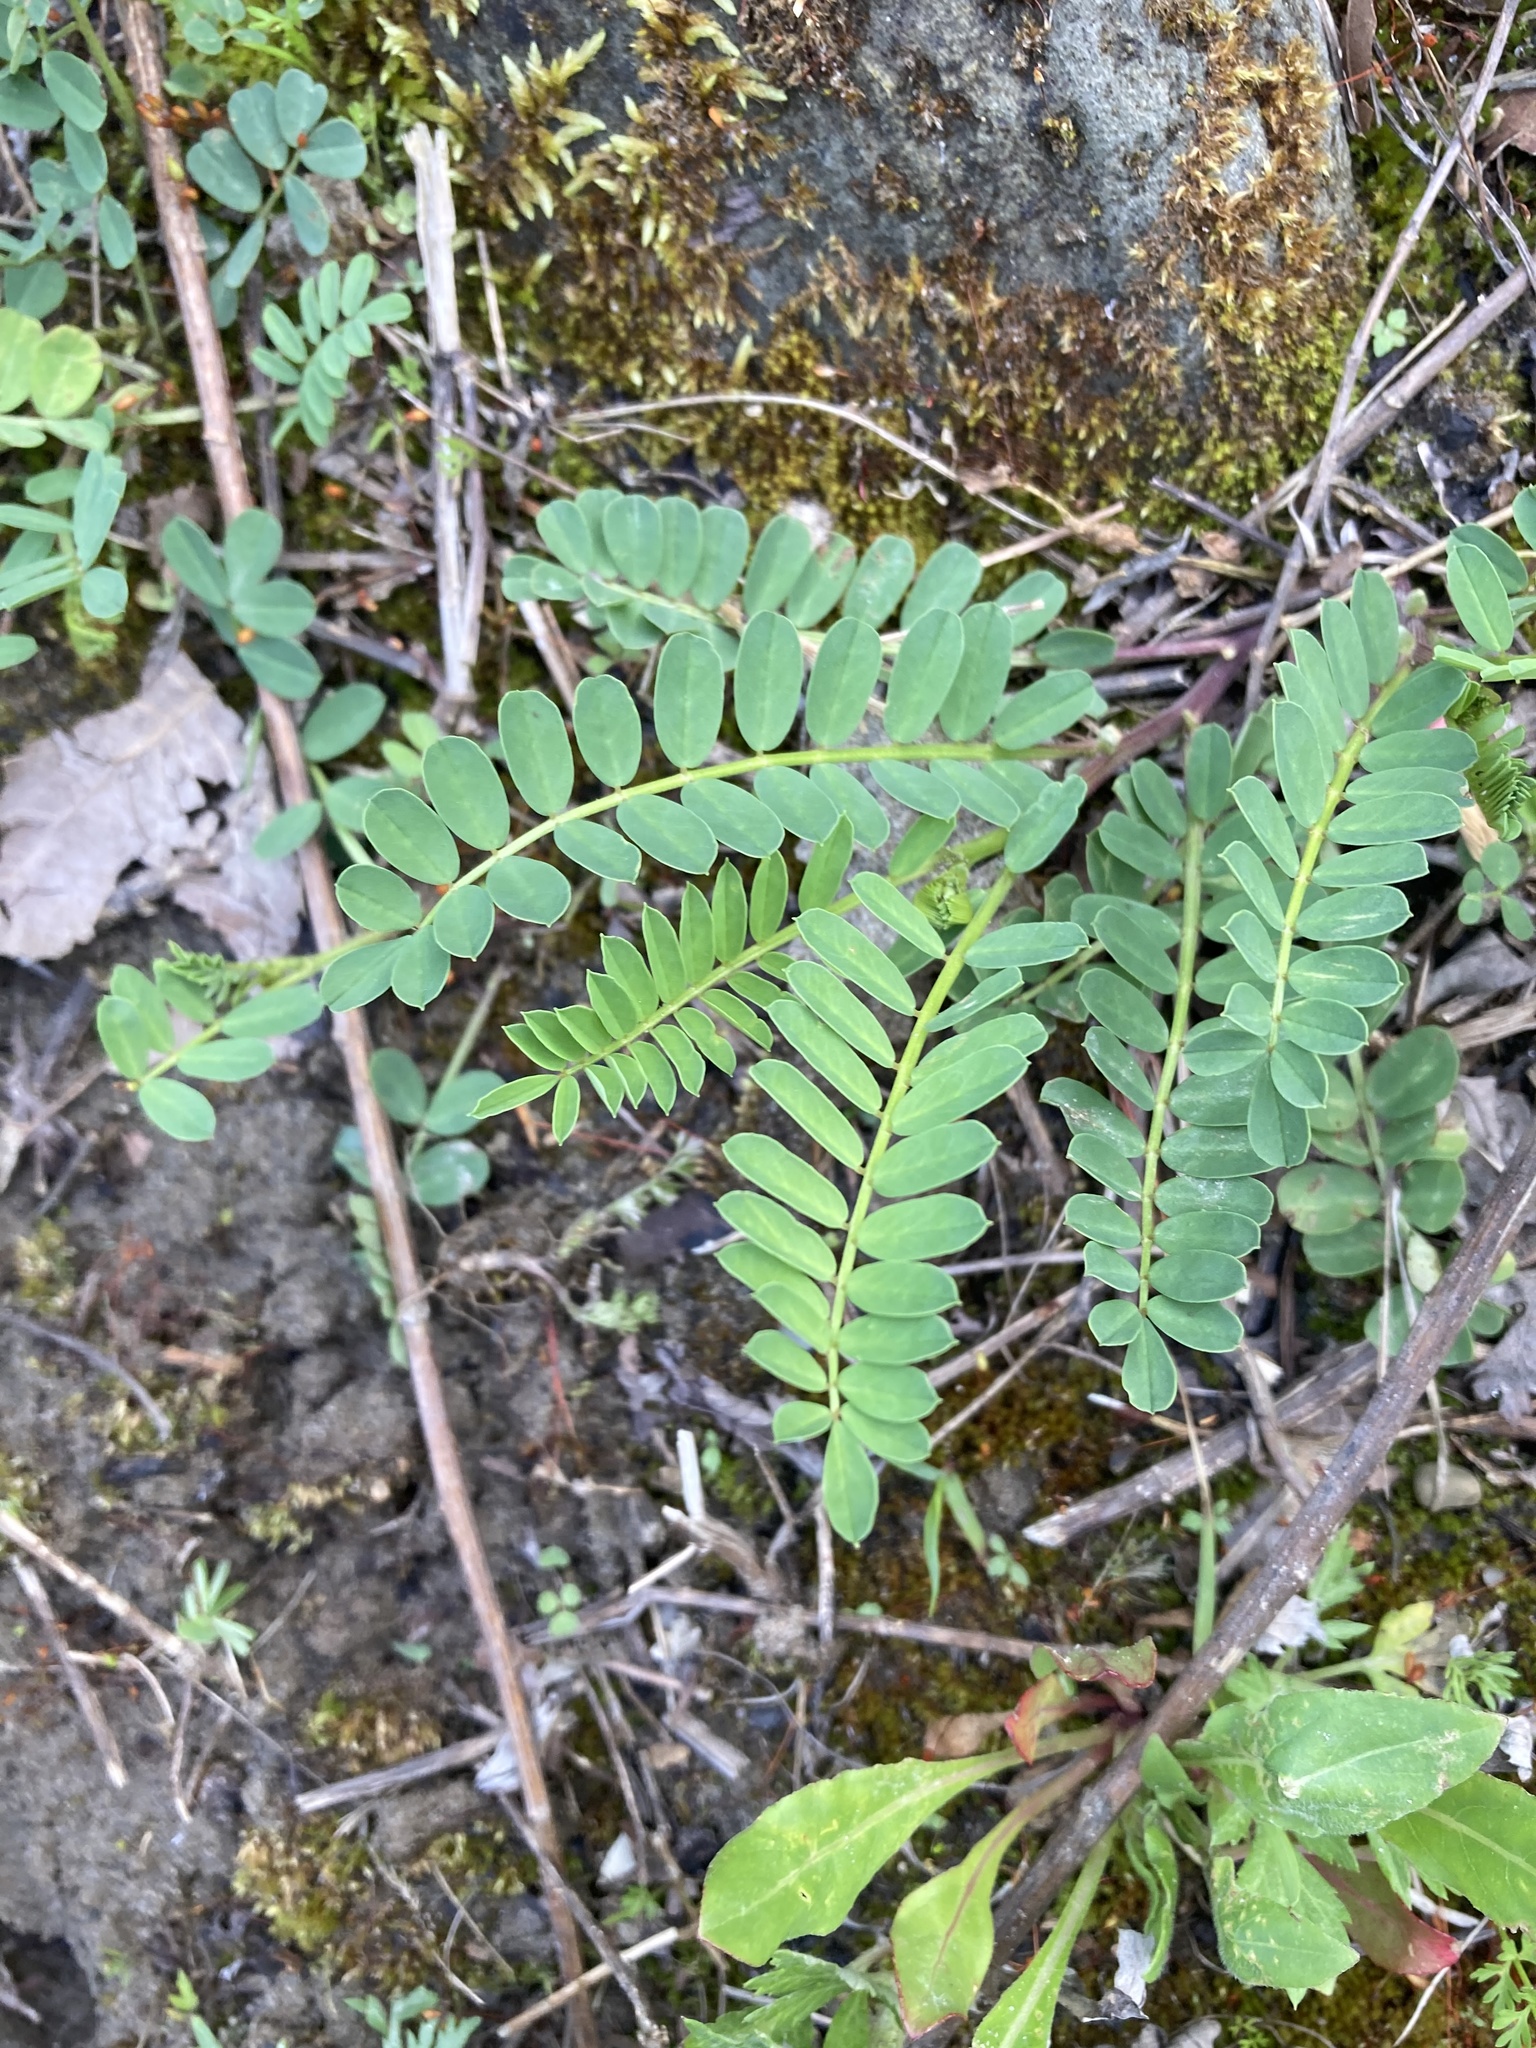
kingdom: Plantae
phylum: Tracheophyta
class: Magnoliopsida
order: Fabales
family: Fabaceae
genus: Coronilla
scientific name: Coronilla varia
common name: Crownvetch
